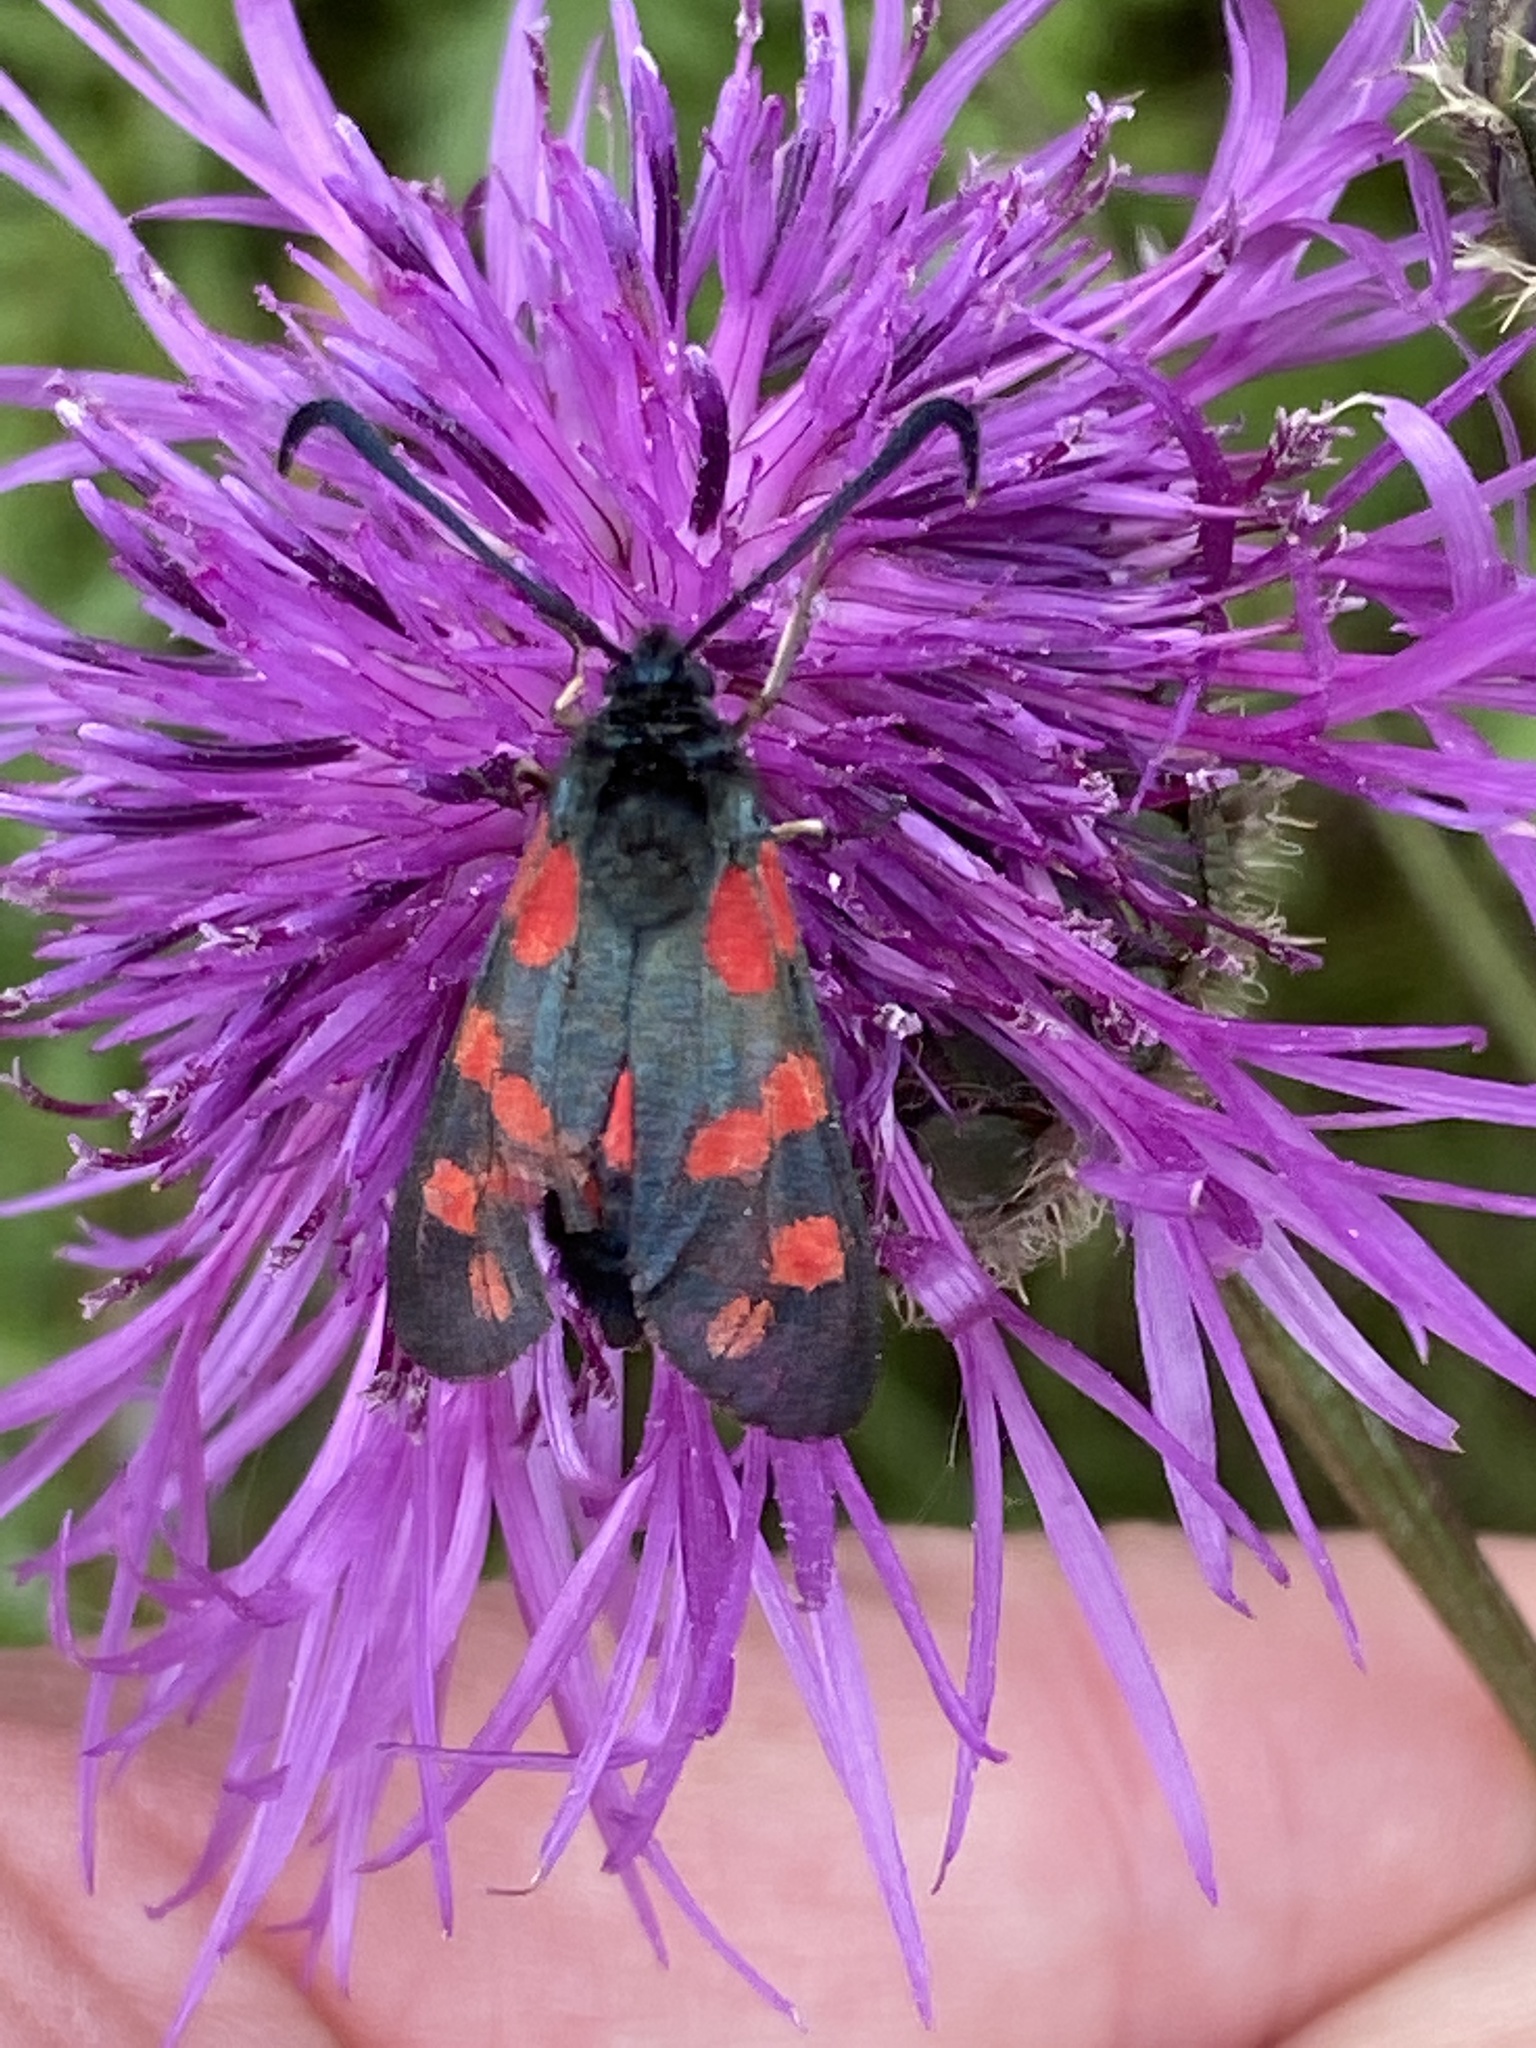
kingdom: Animalia
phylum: Arthropoda
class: Insecta
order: Lepidoptera
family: Zygaenidae
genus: Zygaena
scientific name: Zygaena filipendulae
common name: Six-spot burnet
